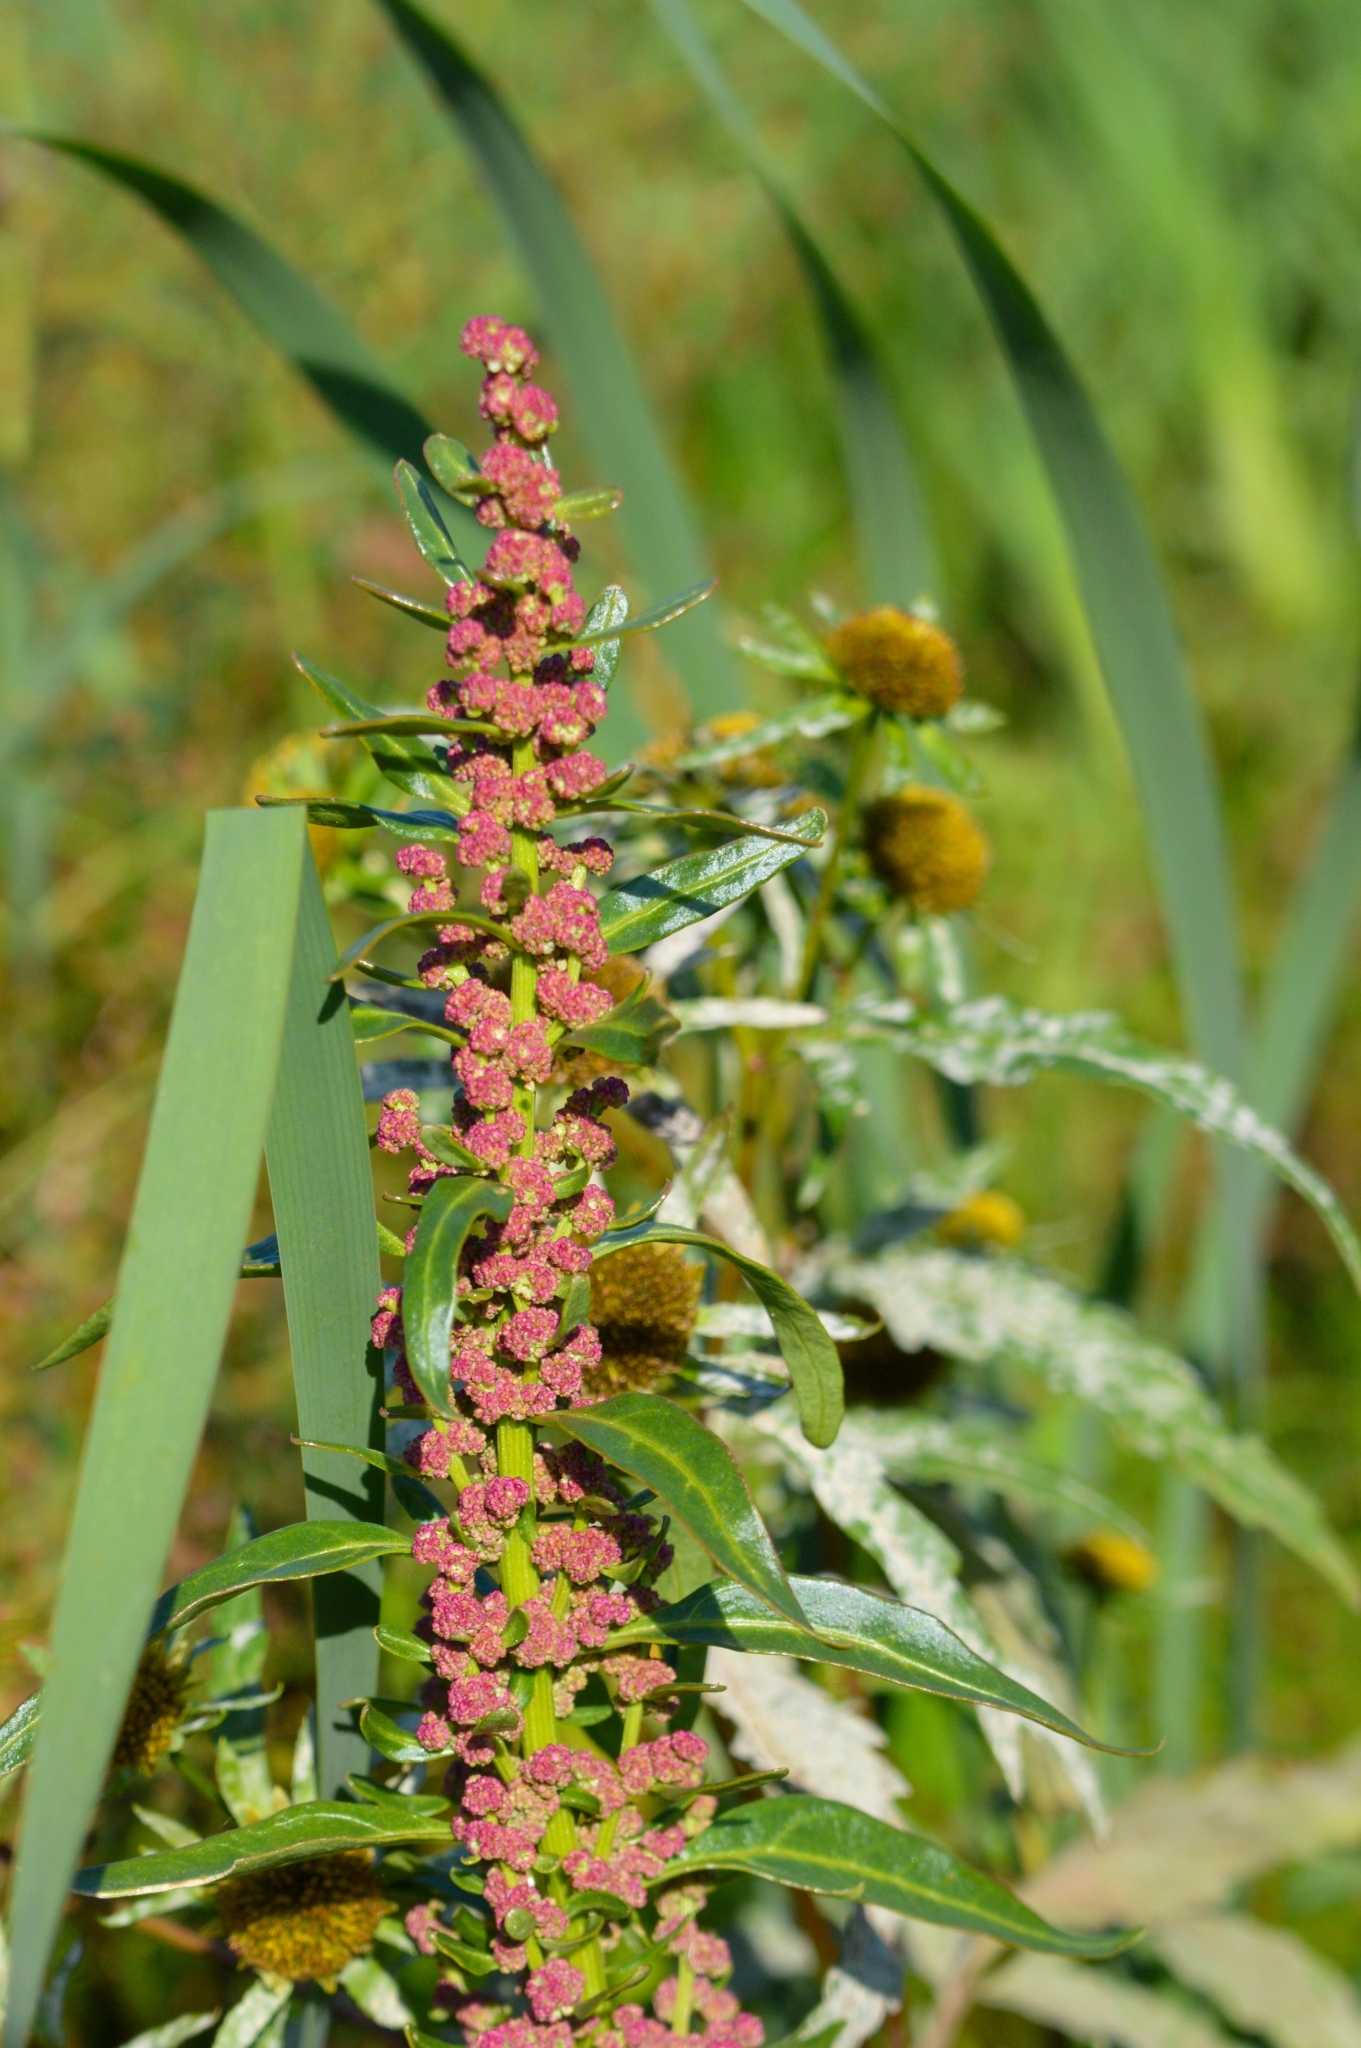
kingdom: Plantae
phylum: Tracheophyta
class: Magnoliopsida
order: Caryophyllales
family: Amaranthaceae
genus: Oxybasis
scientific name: Oxybasis rubra
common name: Red goosefoot
